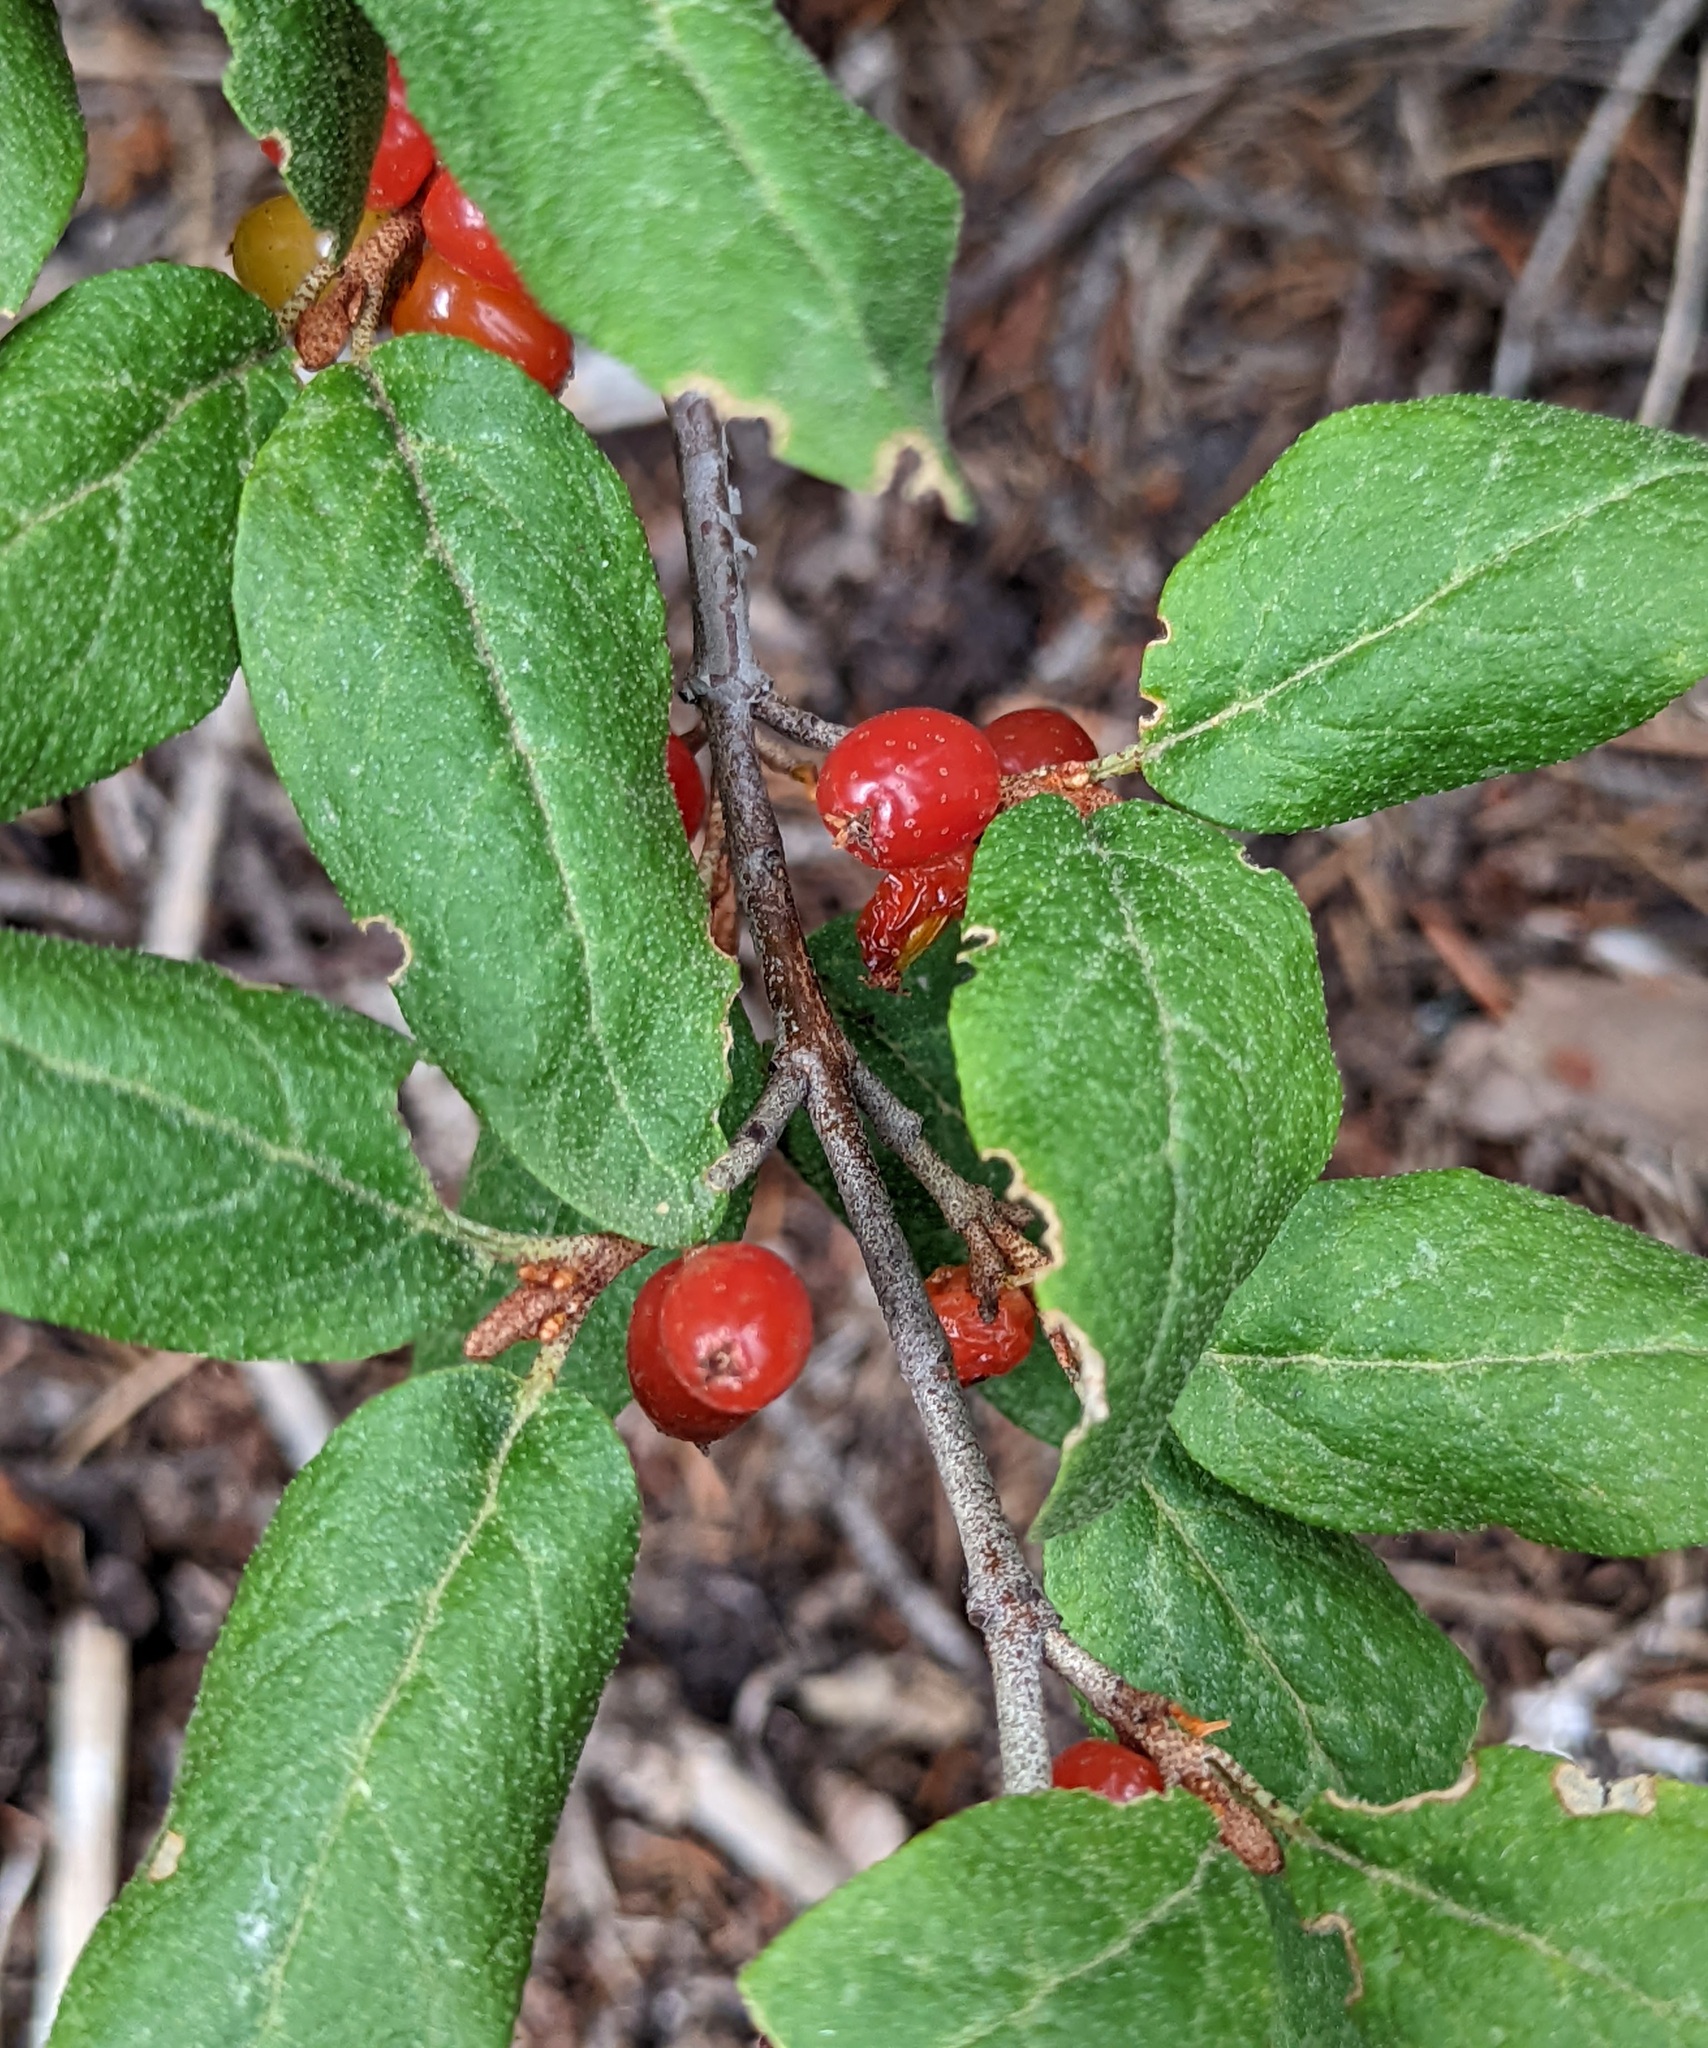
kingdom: Plantae
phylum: Tracheophyta
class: Magnoliopsida
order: Rosales
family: Elaeagnaceae
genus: Shepherdia
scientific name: Shepherdia canadensis
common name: Soapberry
